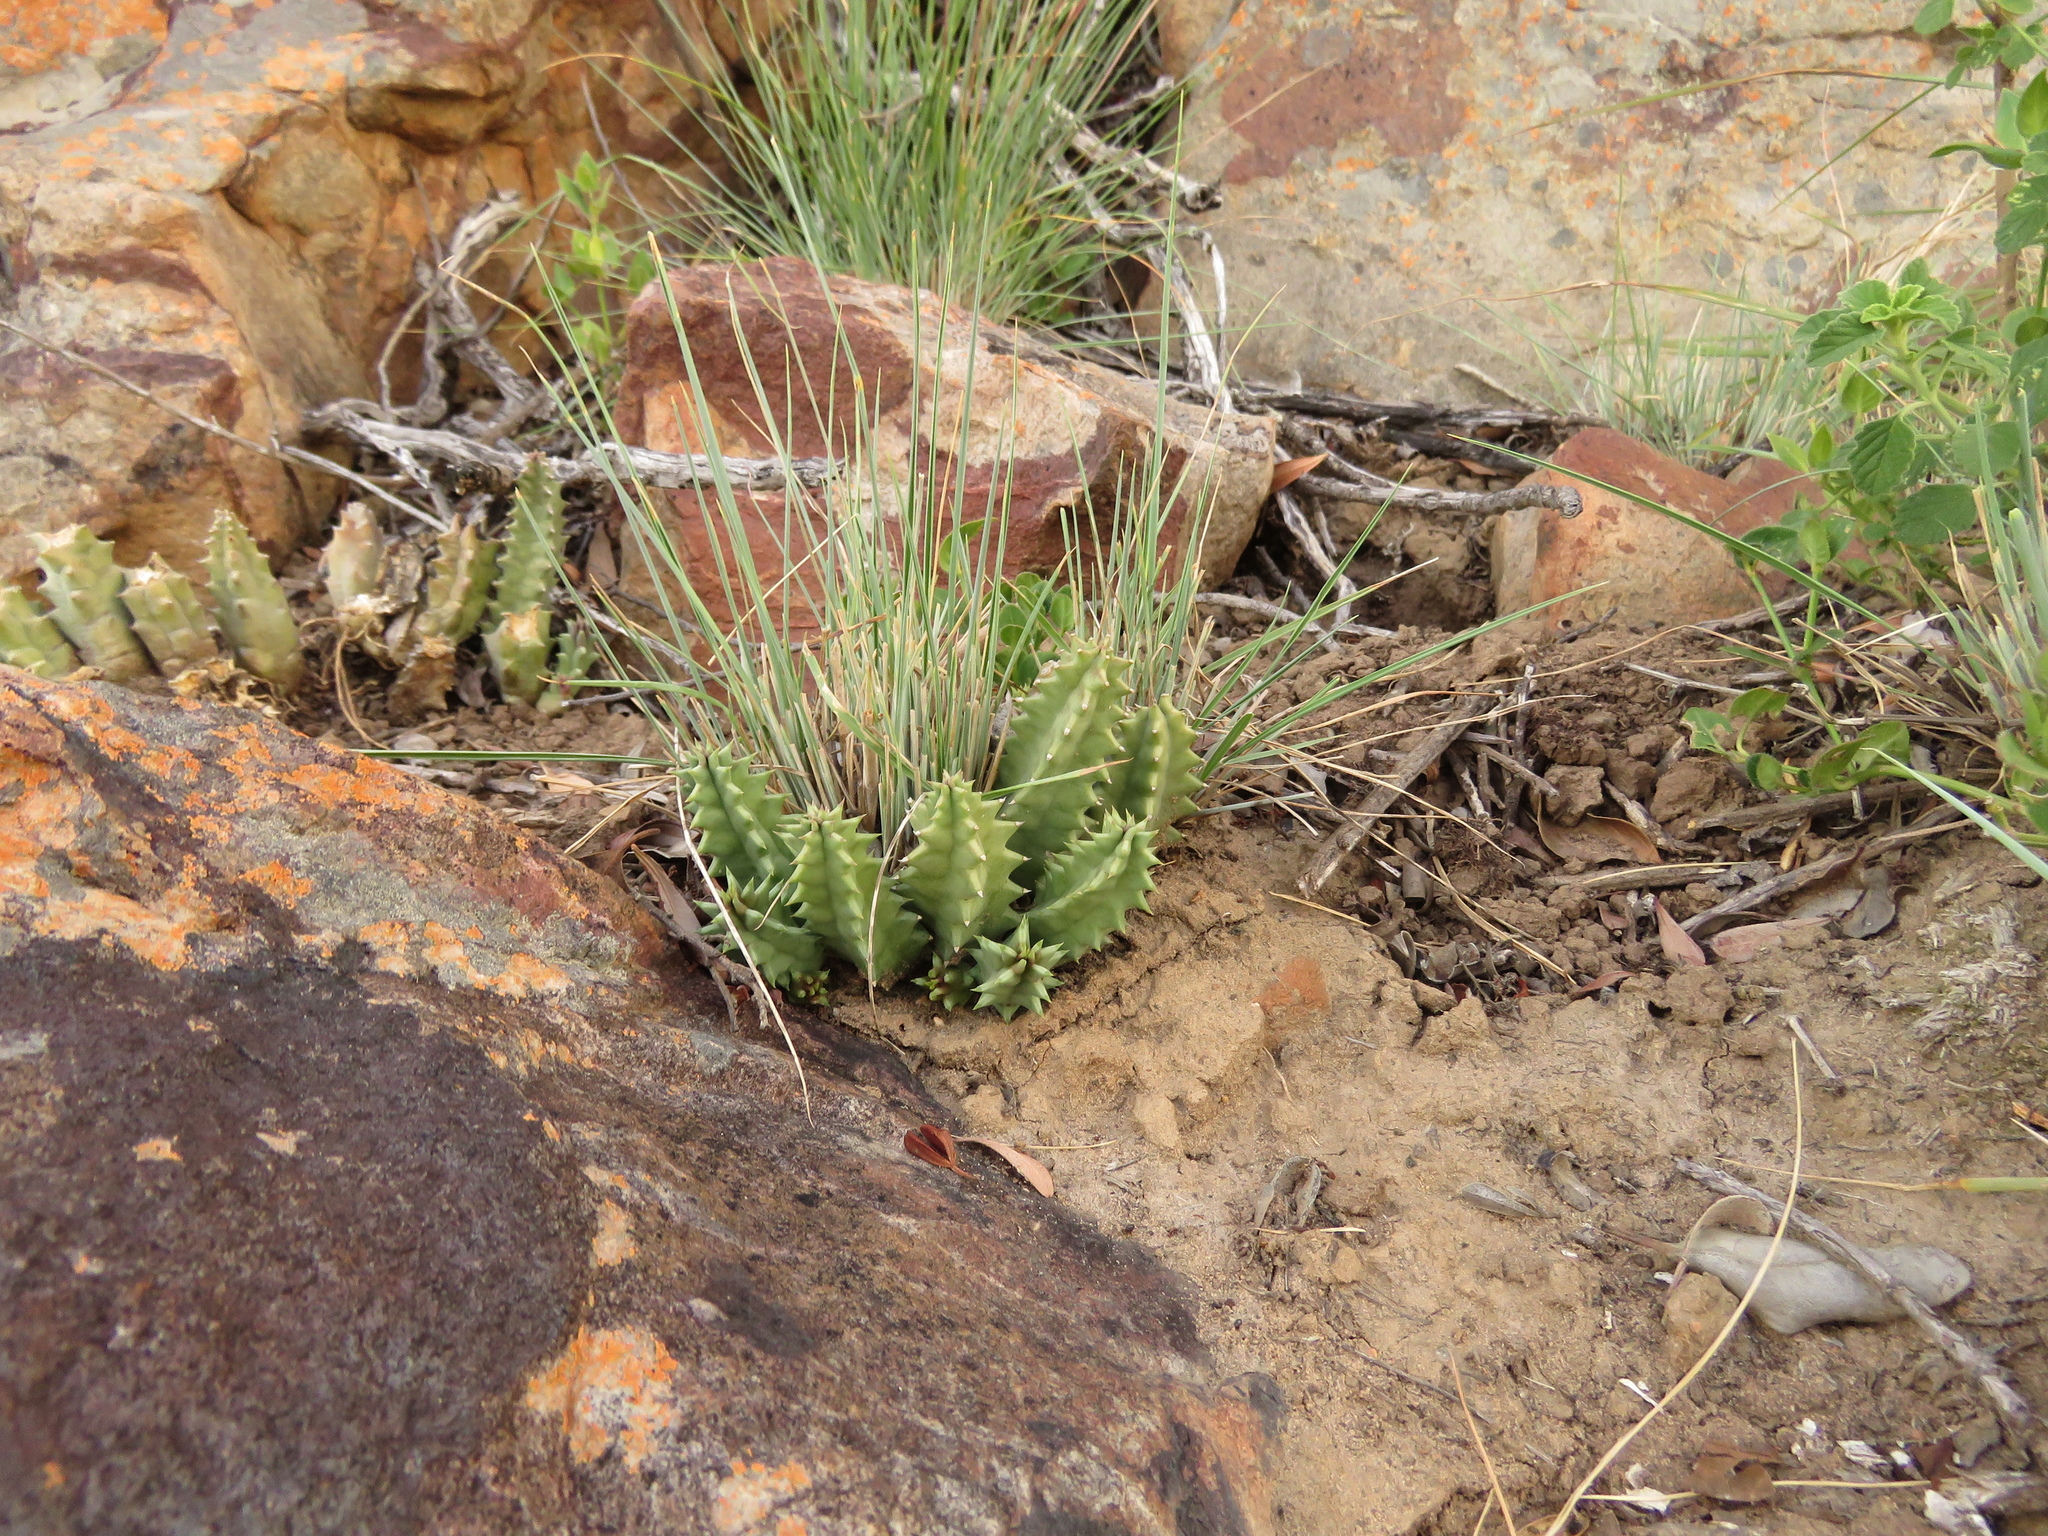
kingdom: Plantae
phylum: Tracheophyta
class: Magnoliopsida
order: Gentianales
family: Apocynaceae
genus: Ceropegia
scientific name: Ceropegia thuretii
